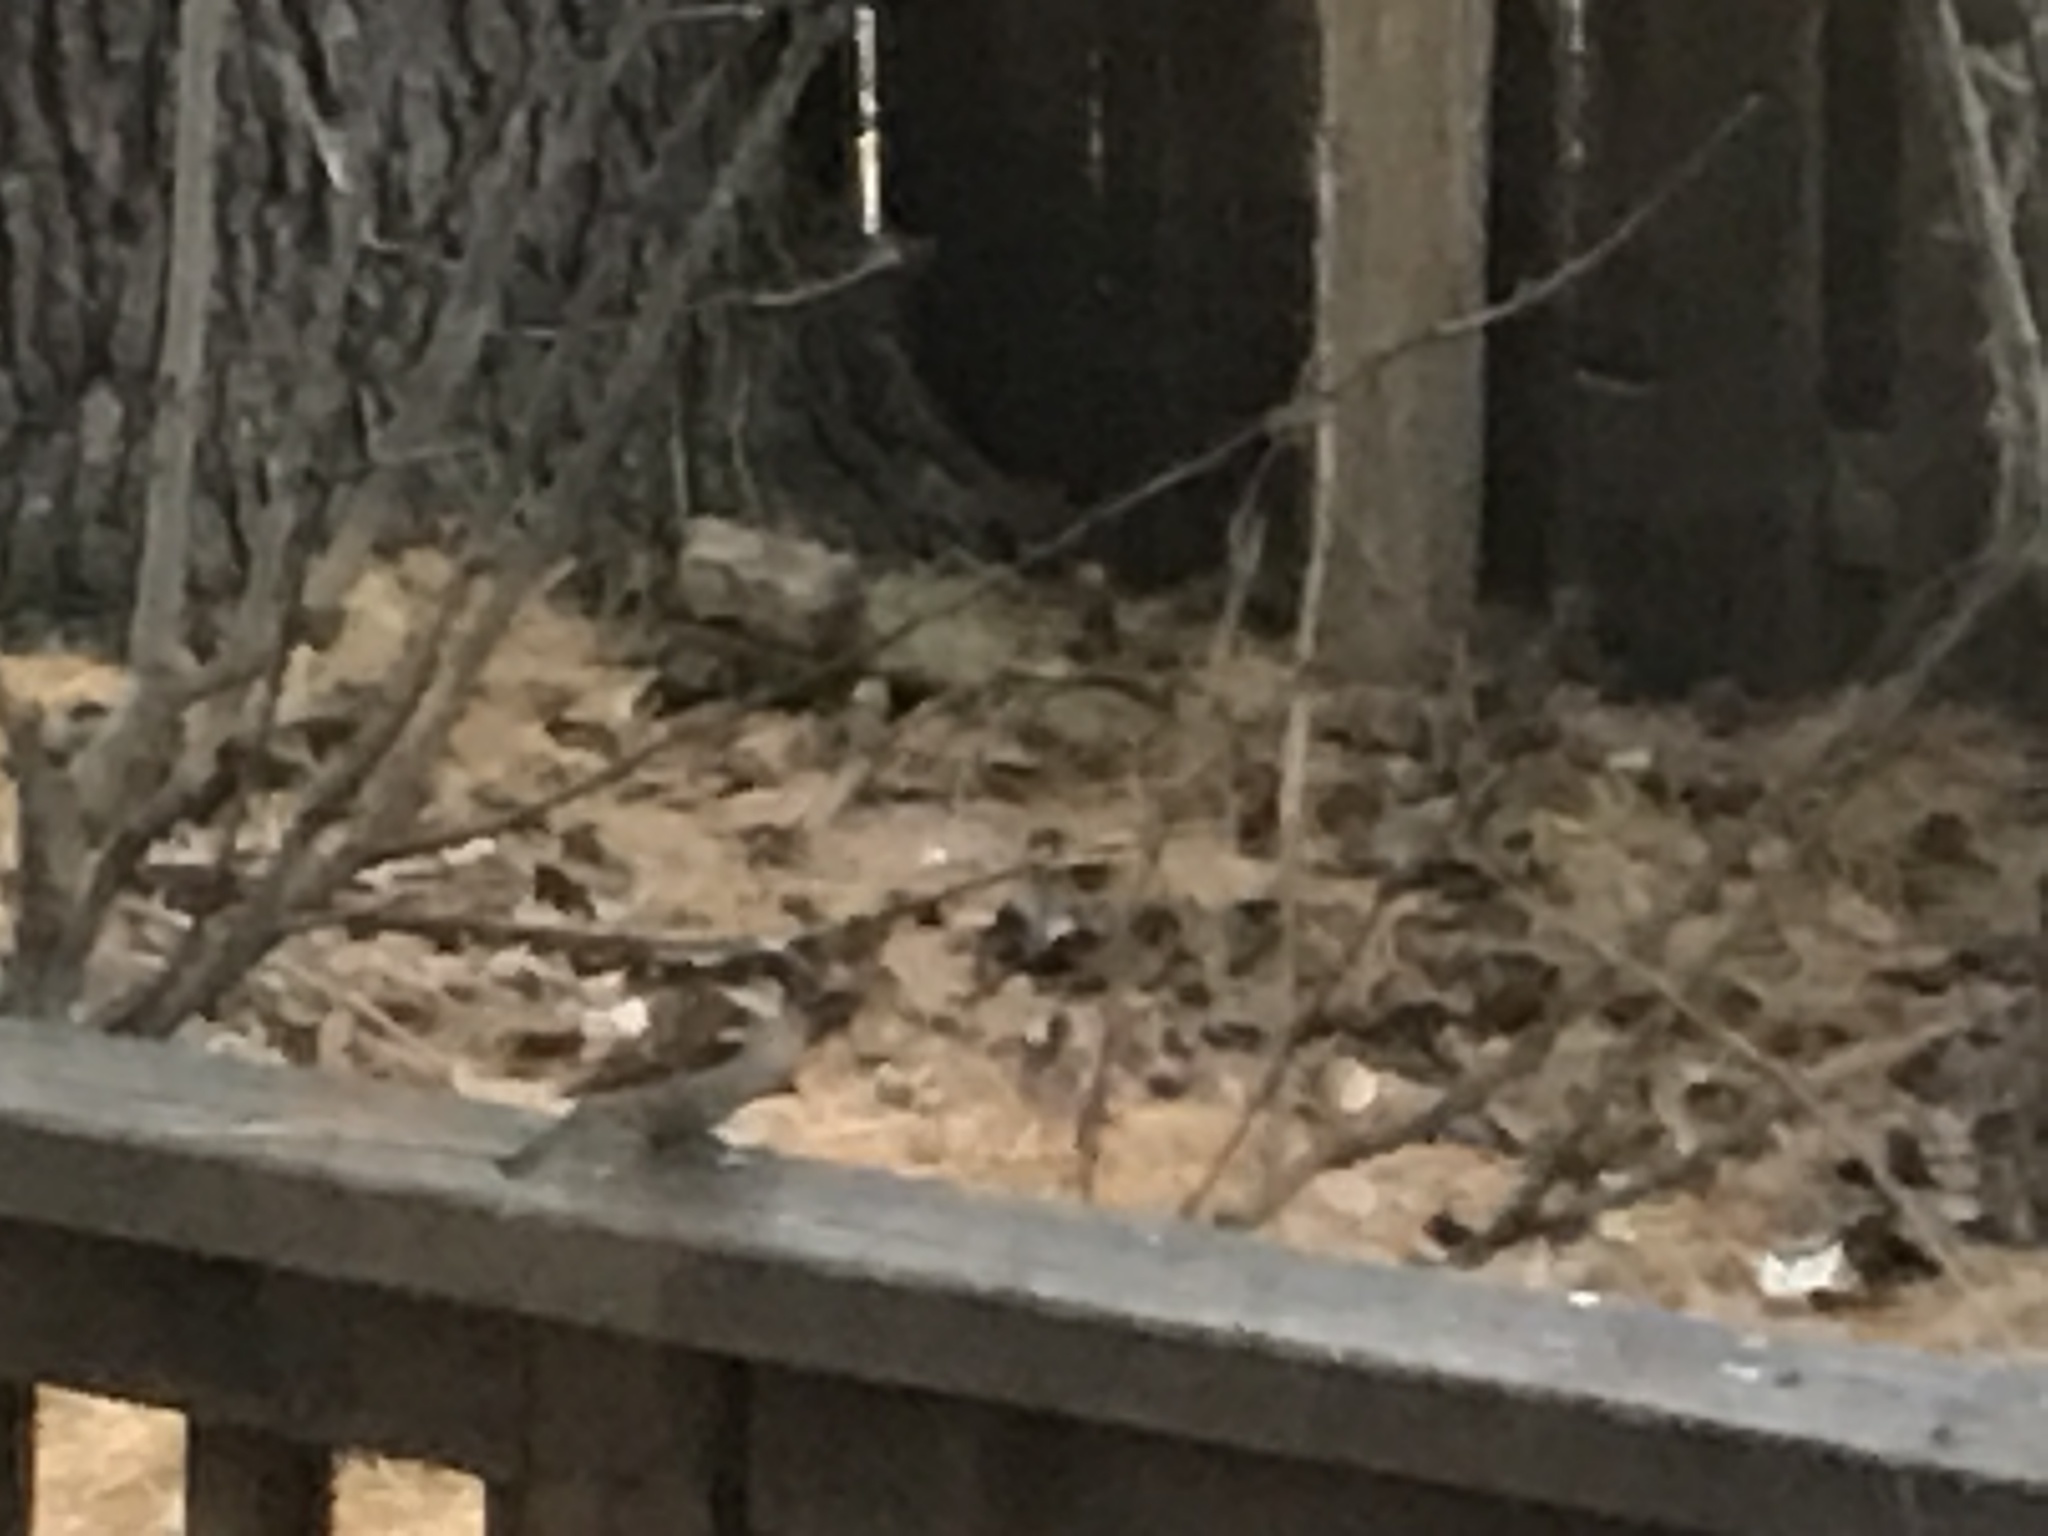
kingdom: Animalia
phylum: Chordata
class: Aves
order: Passeriformes
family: Passeridae
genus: Passer
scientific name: Passer domesticus
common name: House sparrow
